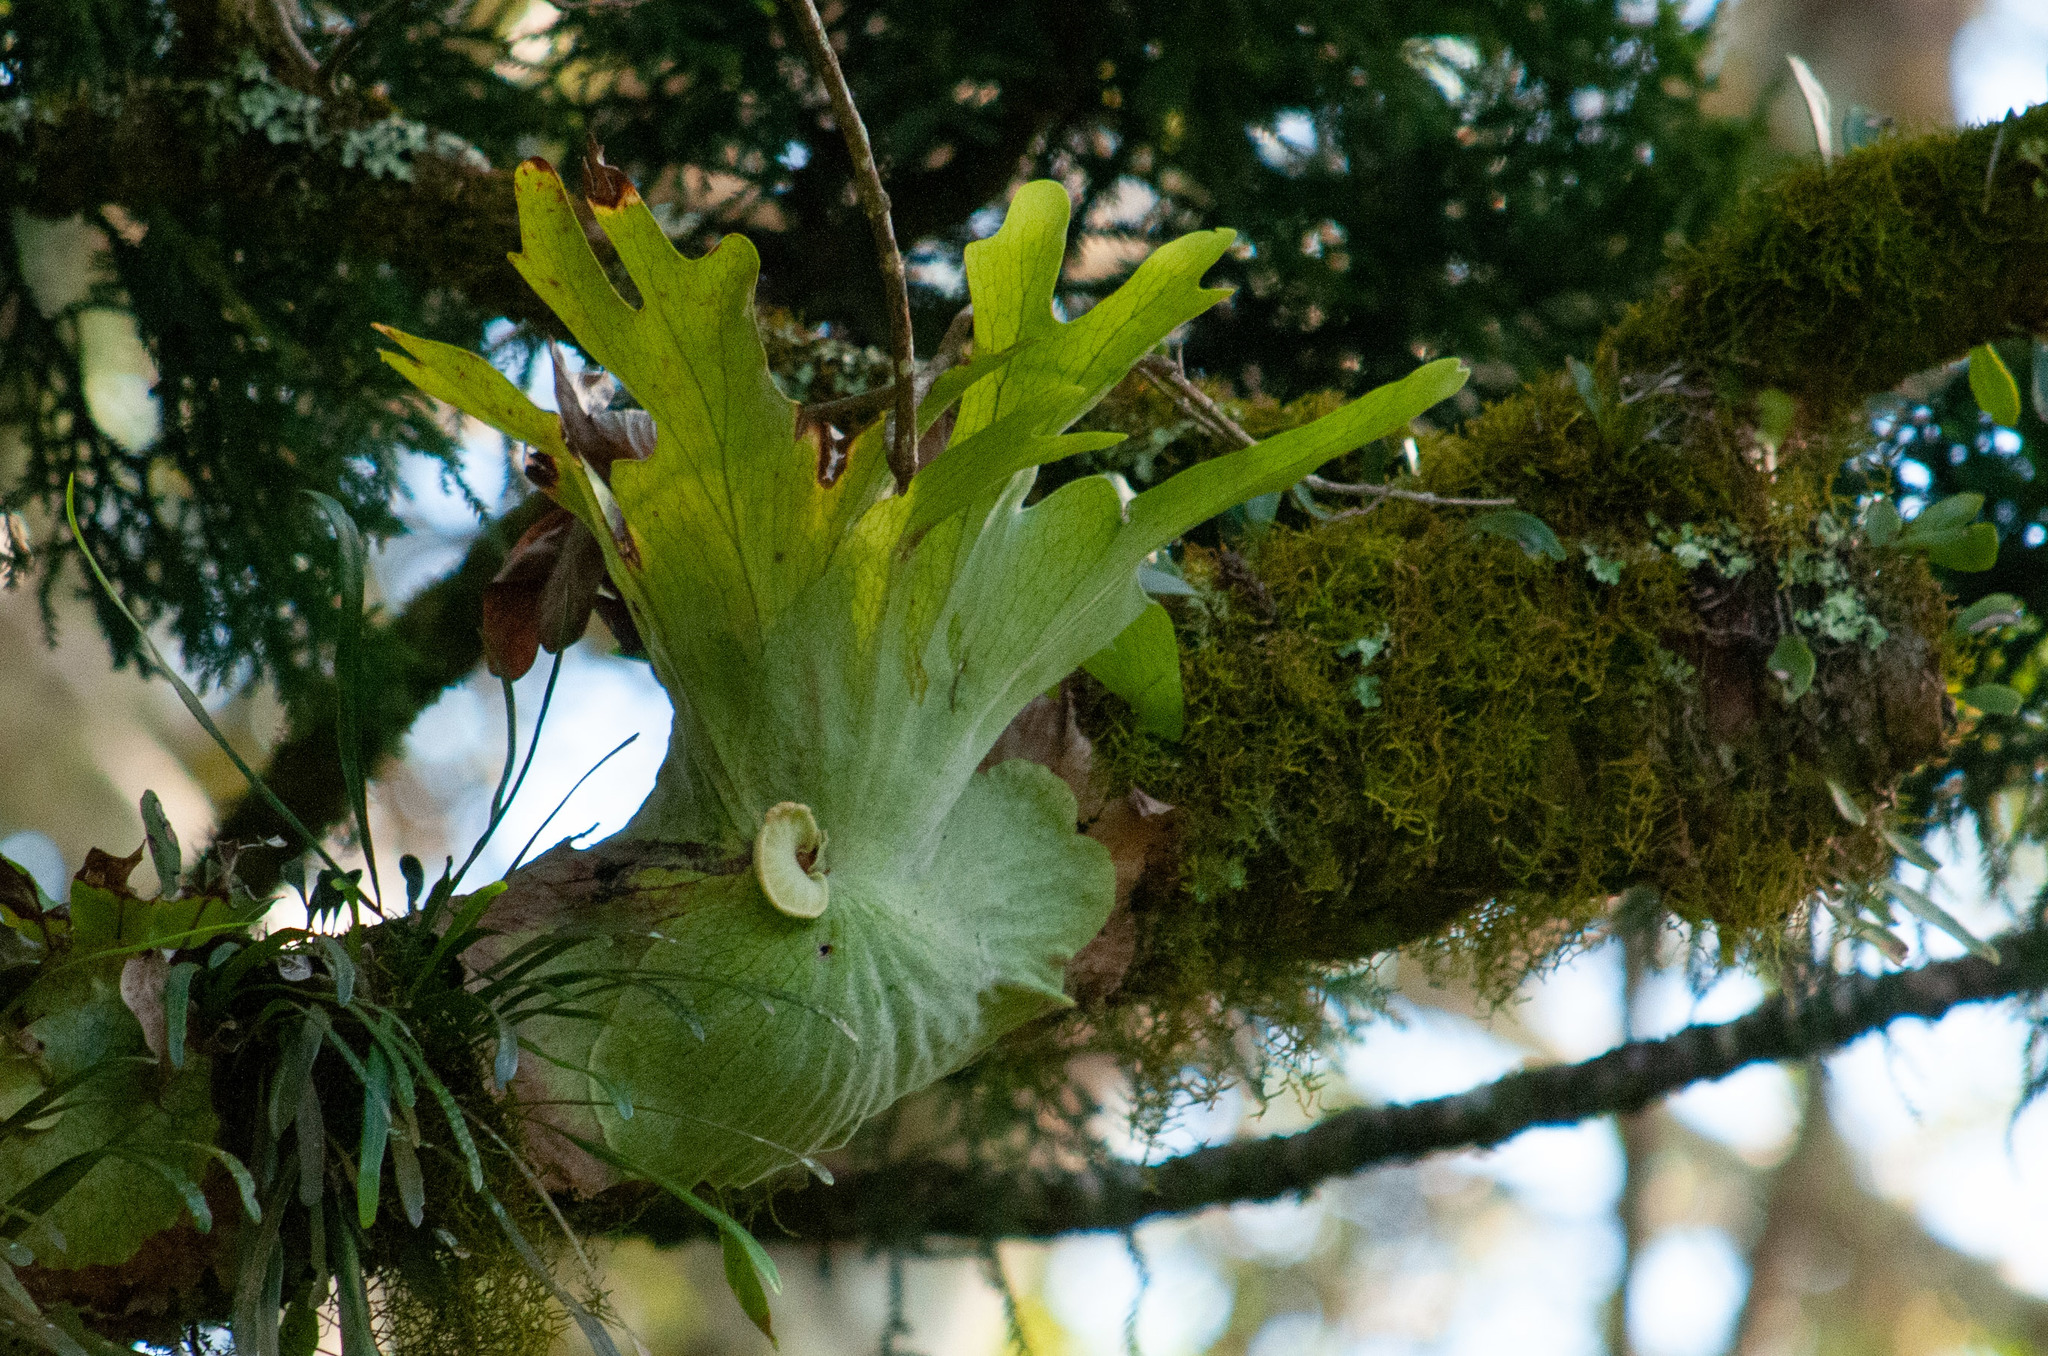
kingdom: Plantae
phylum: Tracheophyta
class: Polypodiopsida
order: Polypodiales
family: Polypodiaceae
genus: Platycerium
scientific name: Platycerium superbum
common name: Staghorn fern
